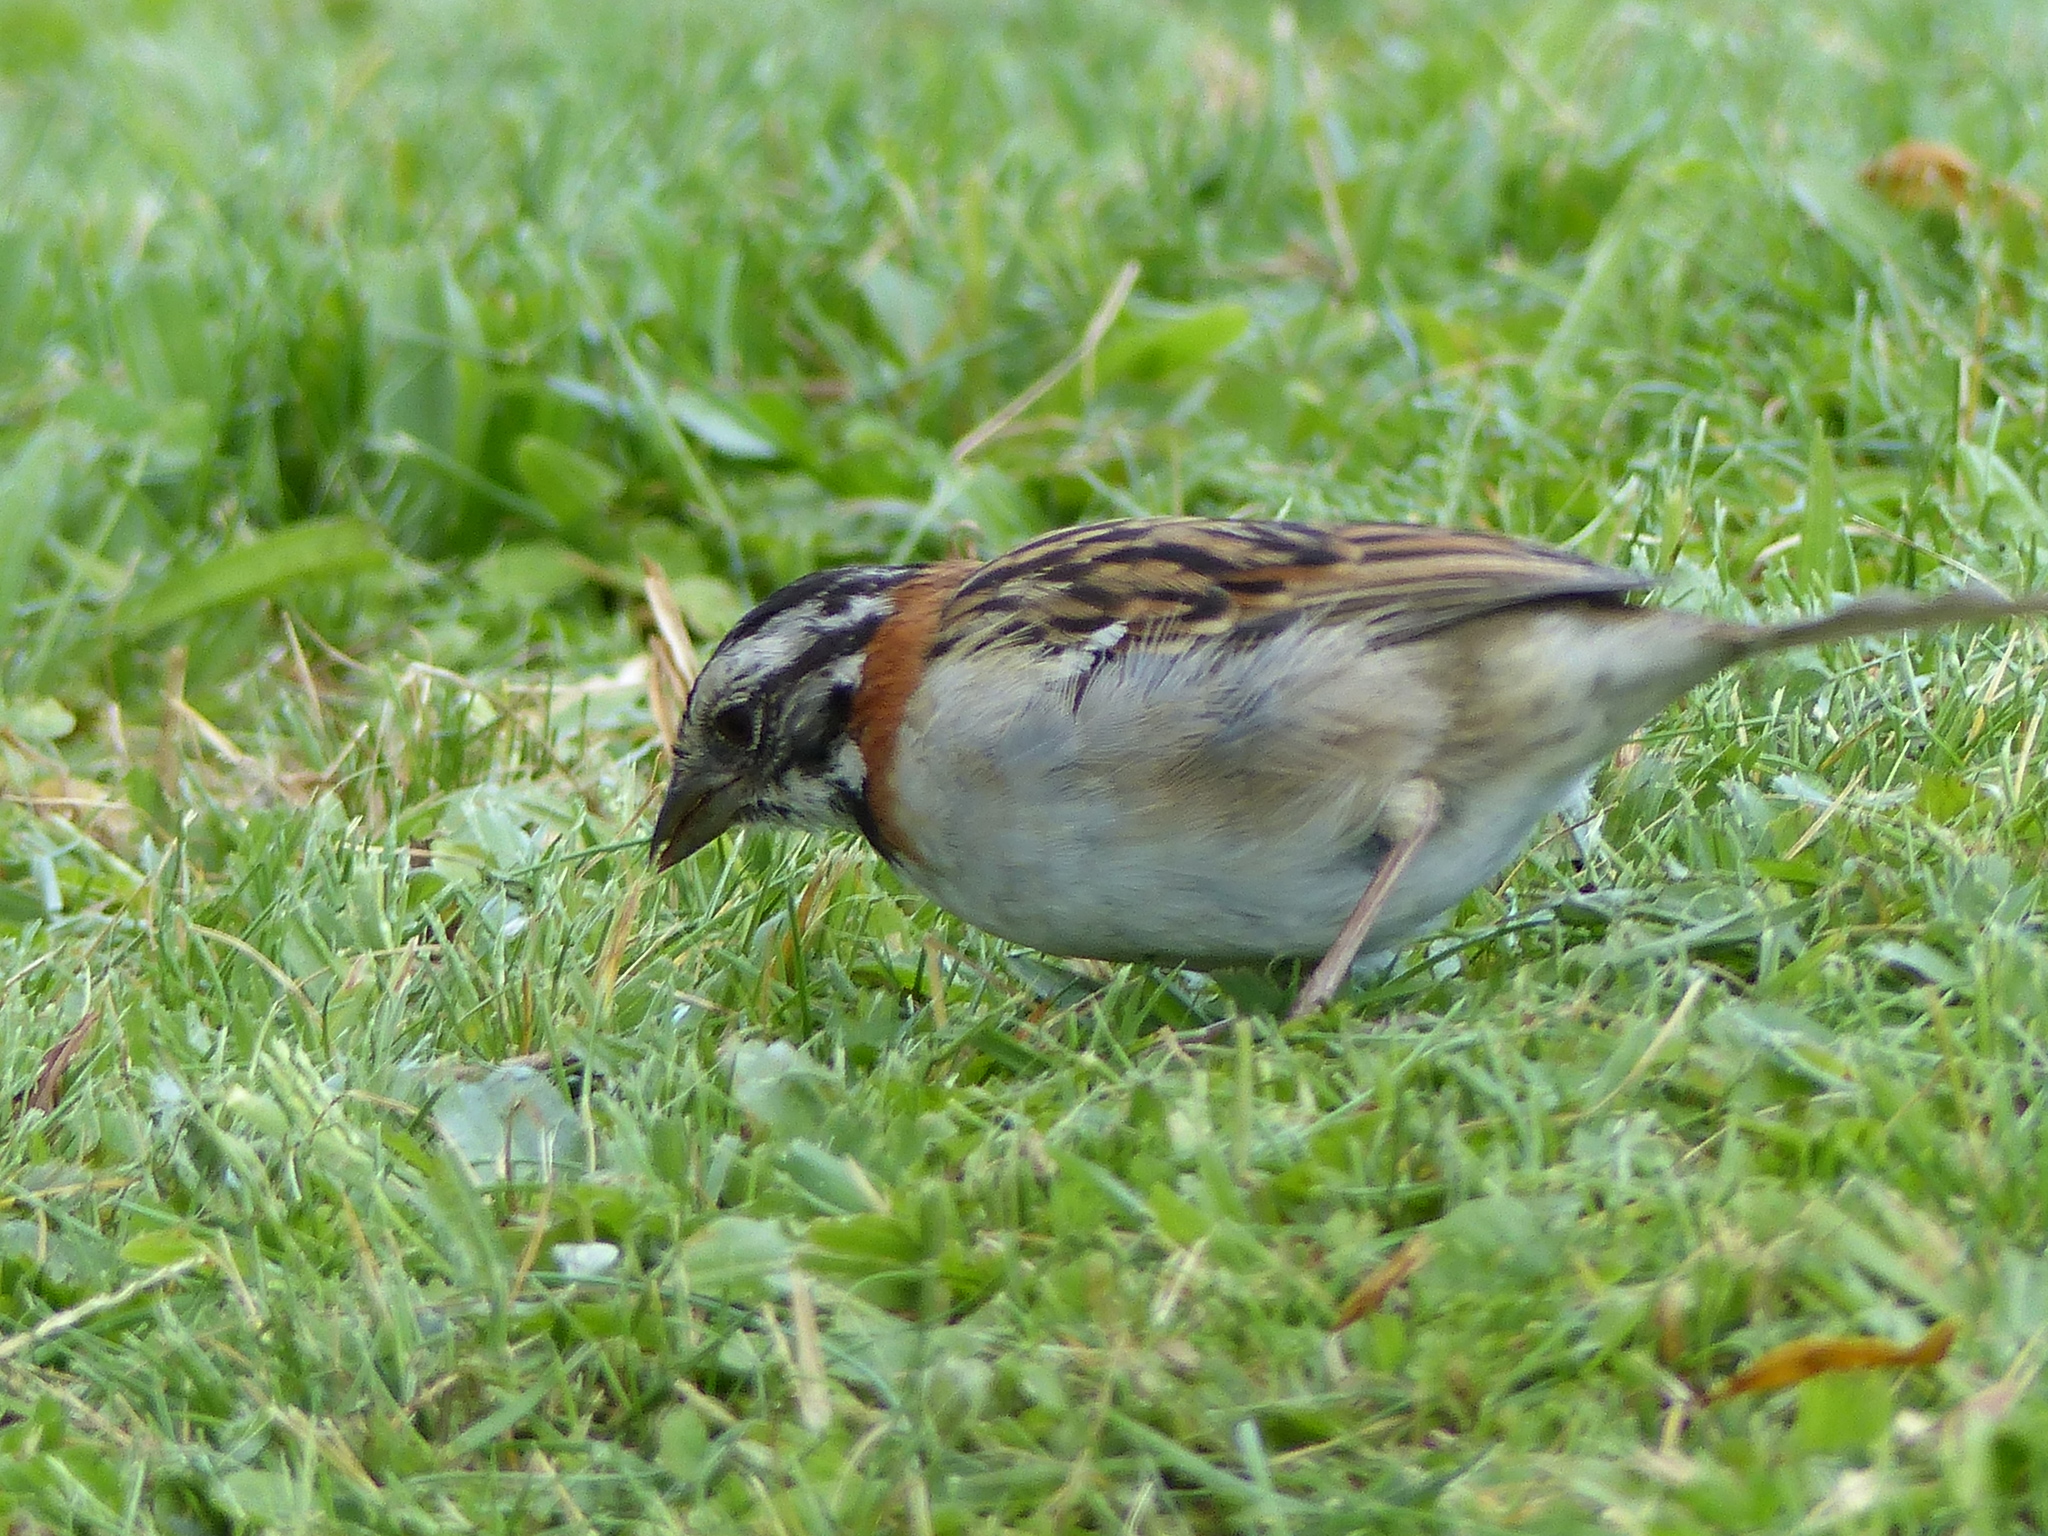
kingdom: Animalia
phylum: Chordata
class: Aves
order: Passeriformes
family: Passerellidae
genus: Zonotrichia
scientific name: Zonotrichia capensis
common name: Rufous-collared sparrow
